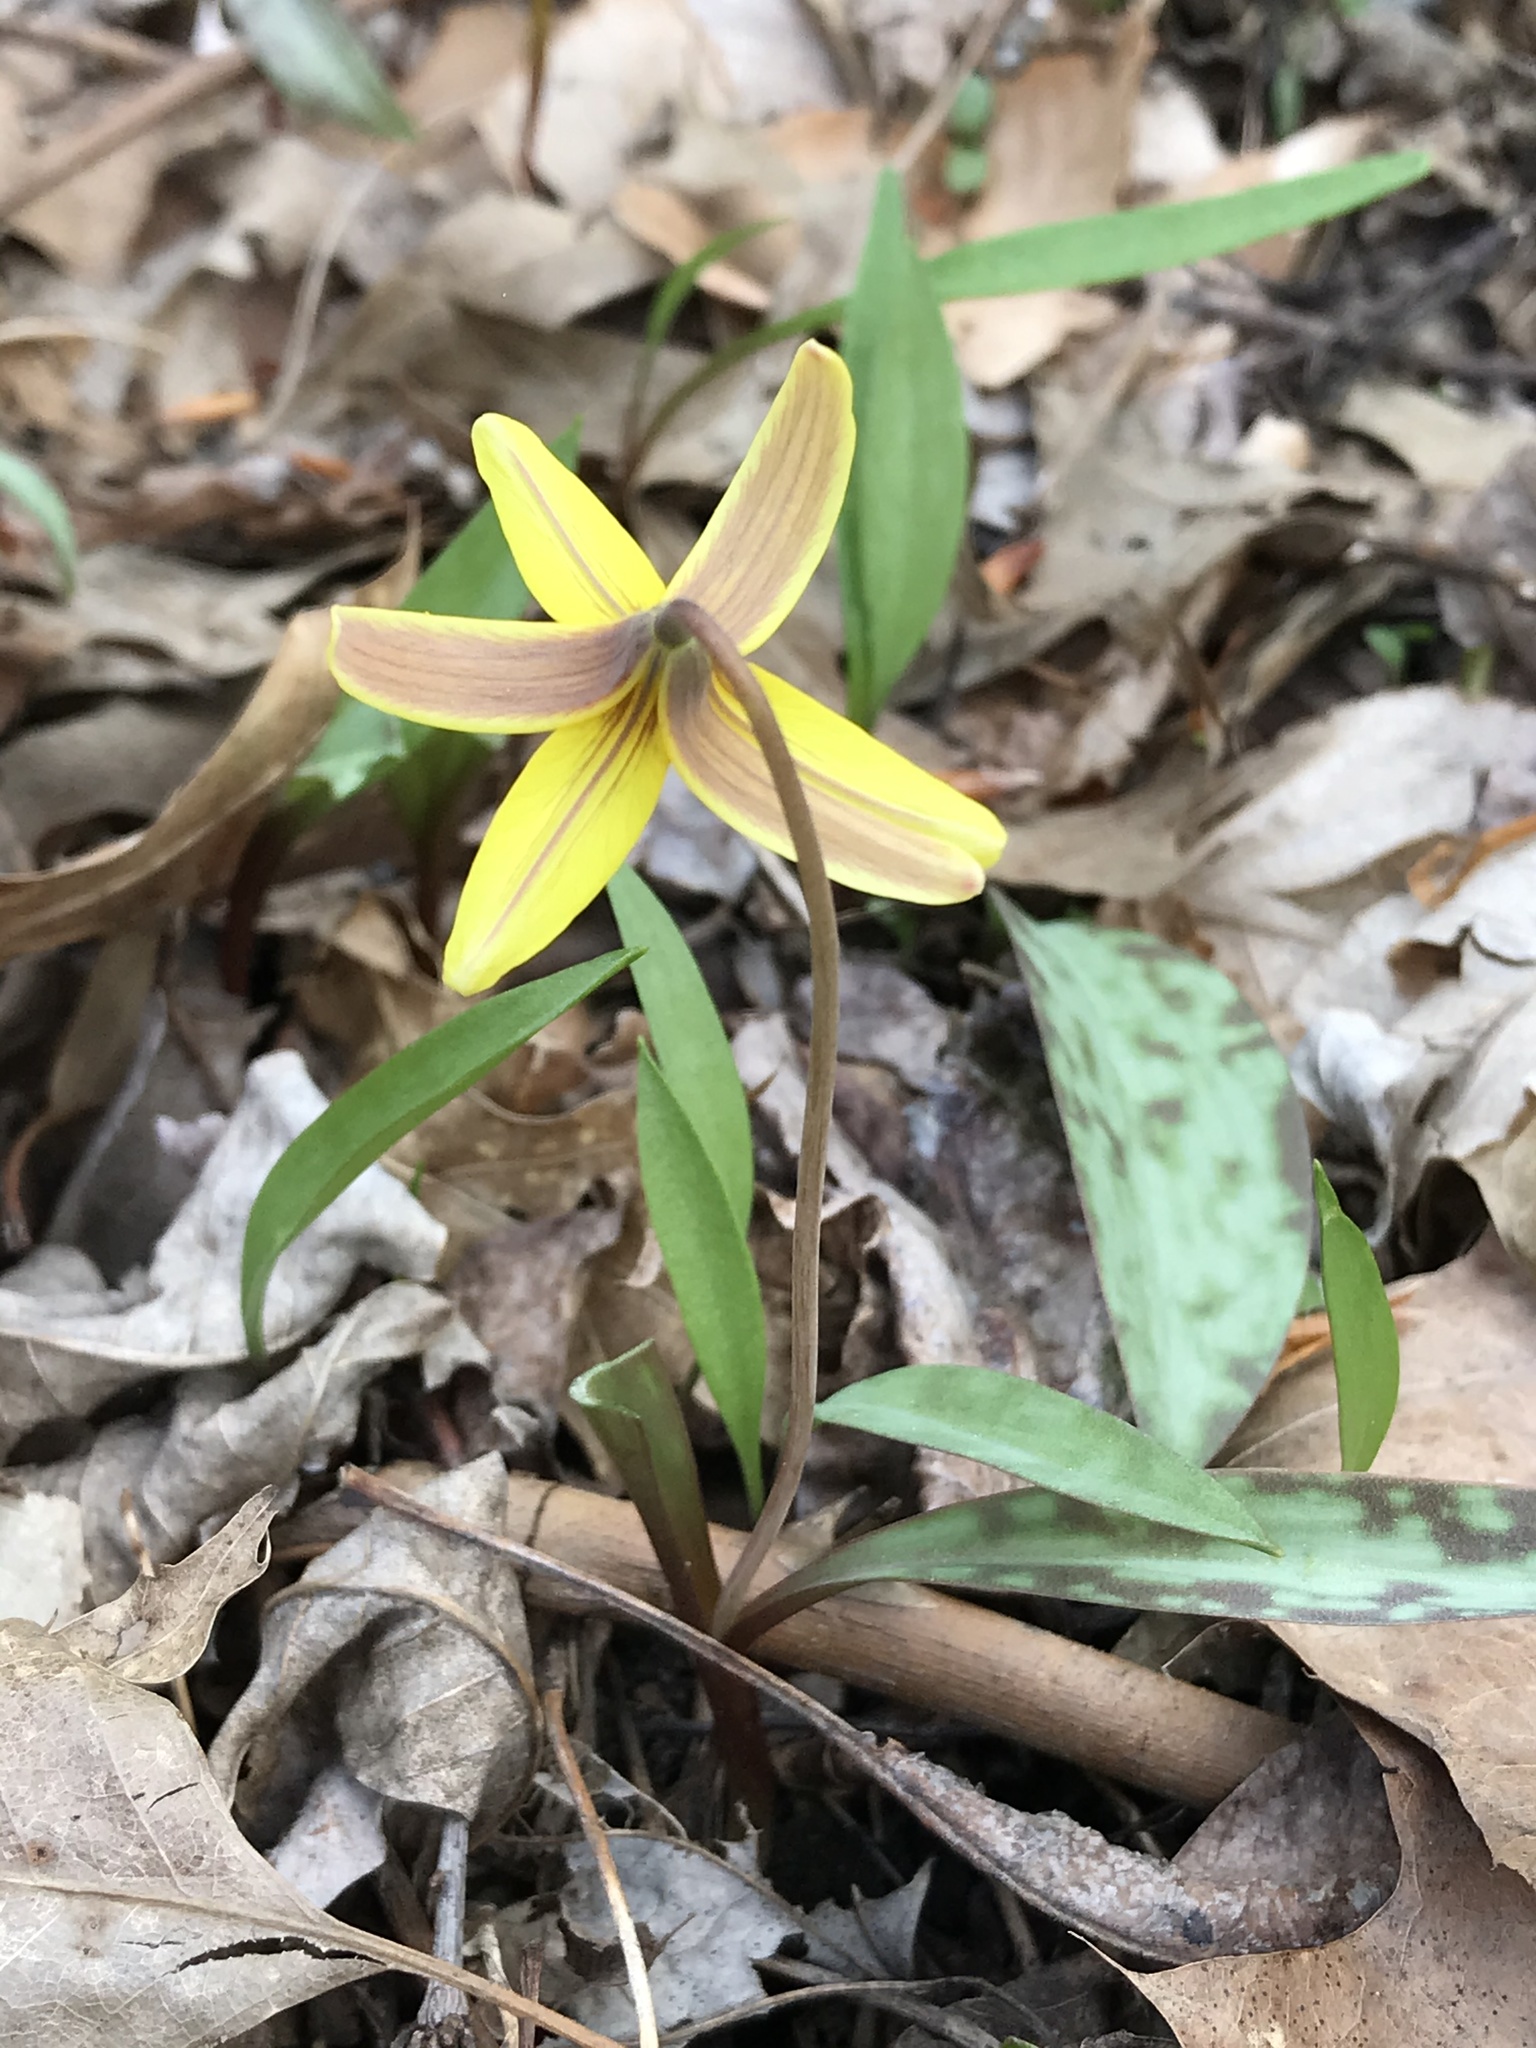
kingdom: Plantae
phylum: Tracheophyta
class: Liliopsida
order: Liliales
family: Liliaceae
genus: Erythronium
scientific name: Erythronium americanum
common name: Yellow adder's-tongue
